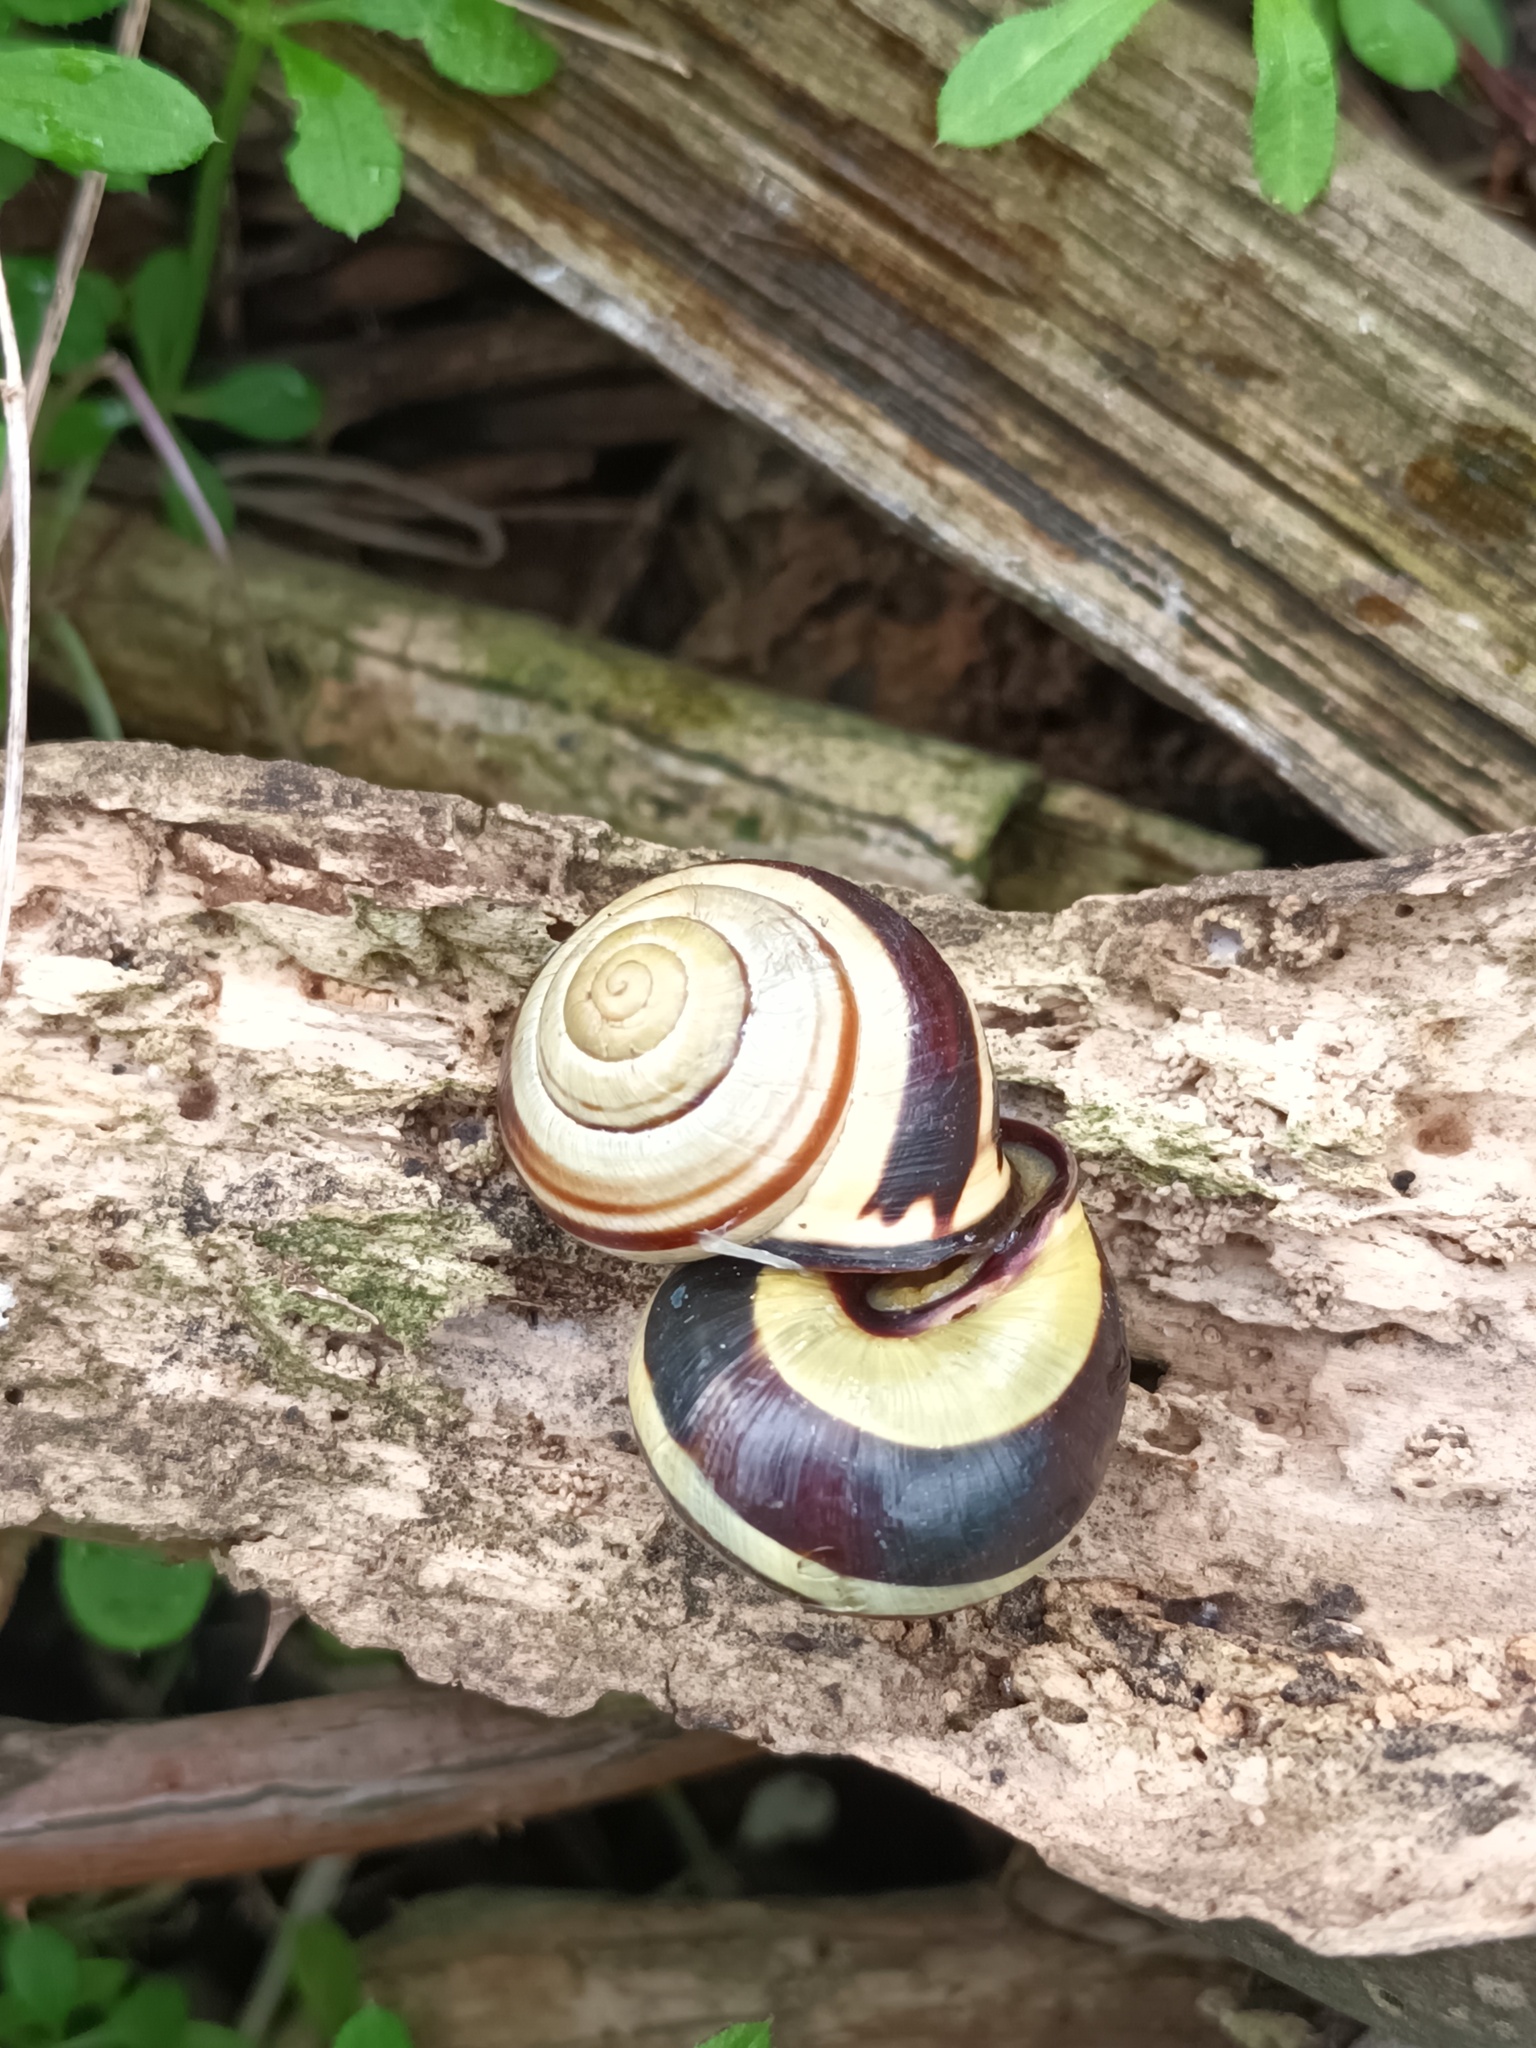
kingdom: Animalia
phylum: Mollusca
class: Gastropoda
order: Stylommatophora
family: Helicidae
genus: Cepaea
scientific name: Cepaea nemoralis
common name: Grovesnail
